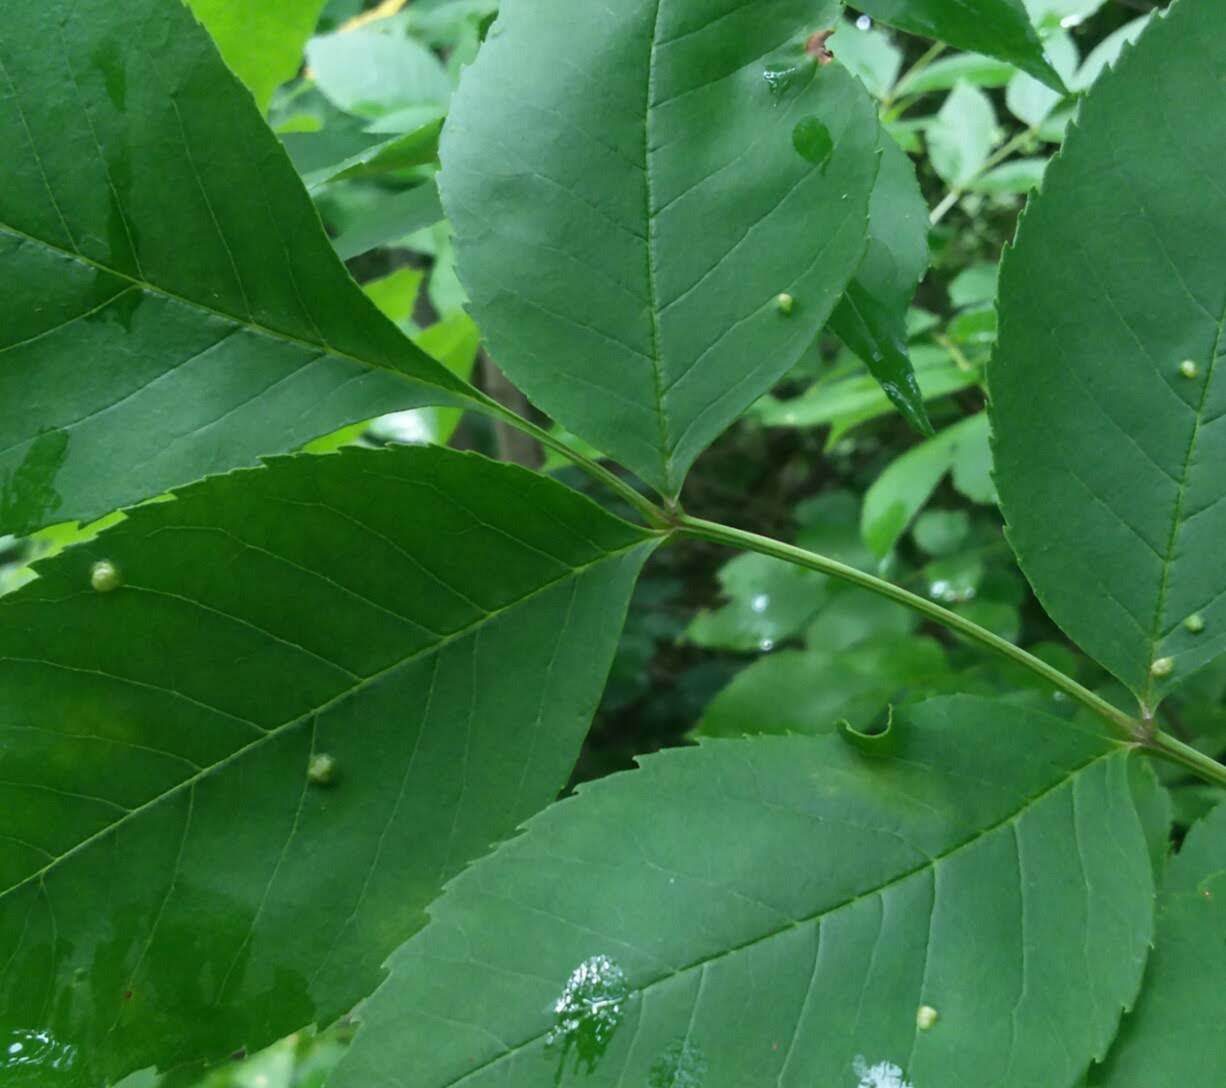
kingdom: Animalia
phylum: Arthropoda
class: Arachnida
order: Trombidiformes
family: Eriophyidae
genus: Aceria
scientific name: Aceria fraxinicola
